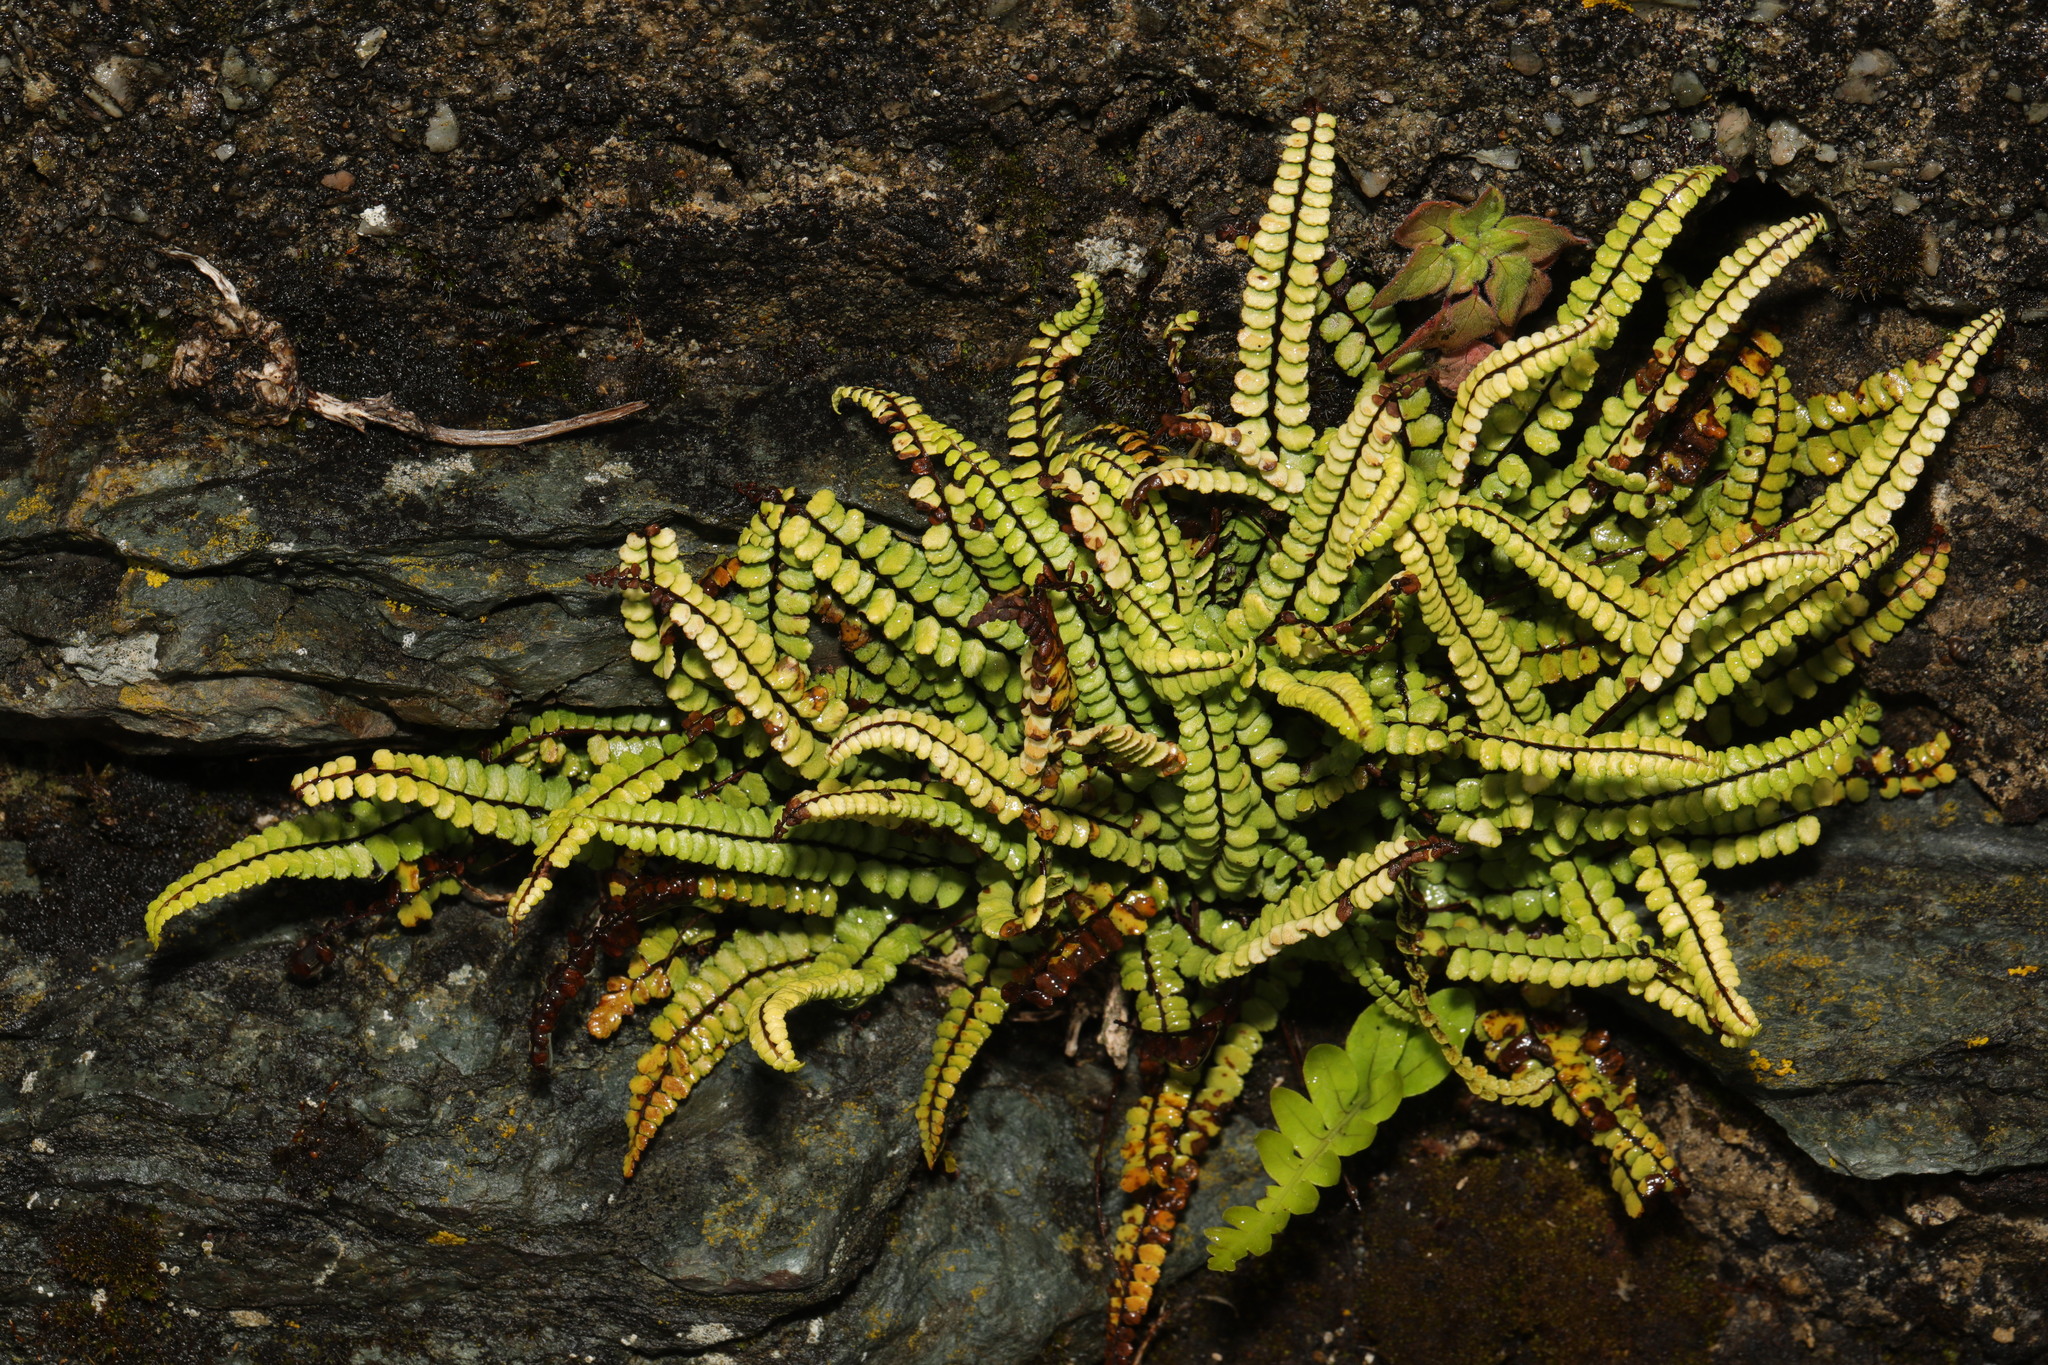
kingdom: Plantae
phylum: Tracheophyta
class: Polypodiopsida
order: Polypodiales
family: Aspleniaceae
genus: Asplenium
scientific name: Asplenium trichomanes
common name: Maidenhair spleenwort
